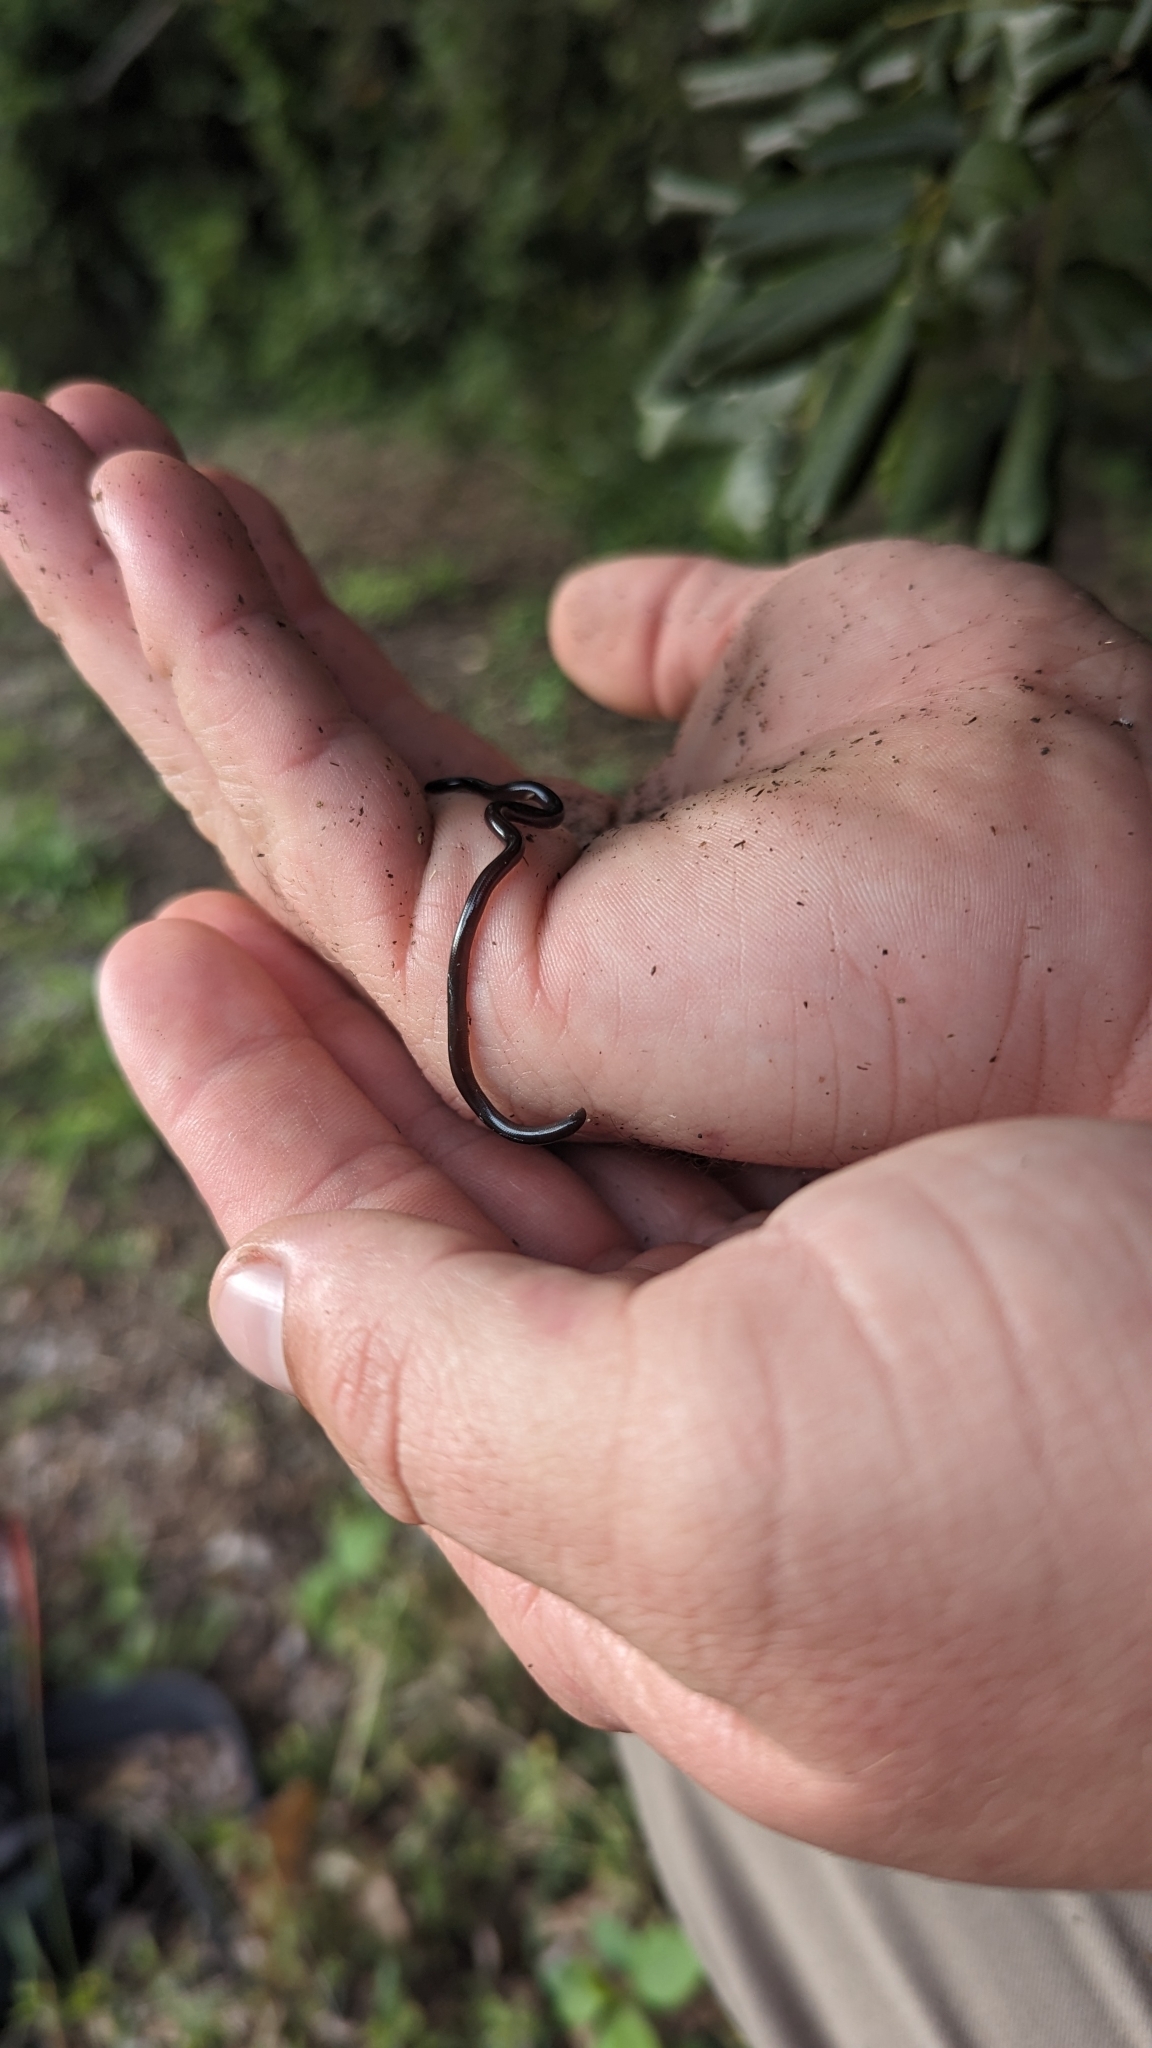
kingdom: Animalia
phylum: Chordata
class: Squamata
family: Typhlopidae
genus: Indotyphlops
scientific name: Indotyphlops braminus
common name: Brahminy blindsnake
